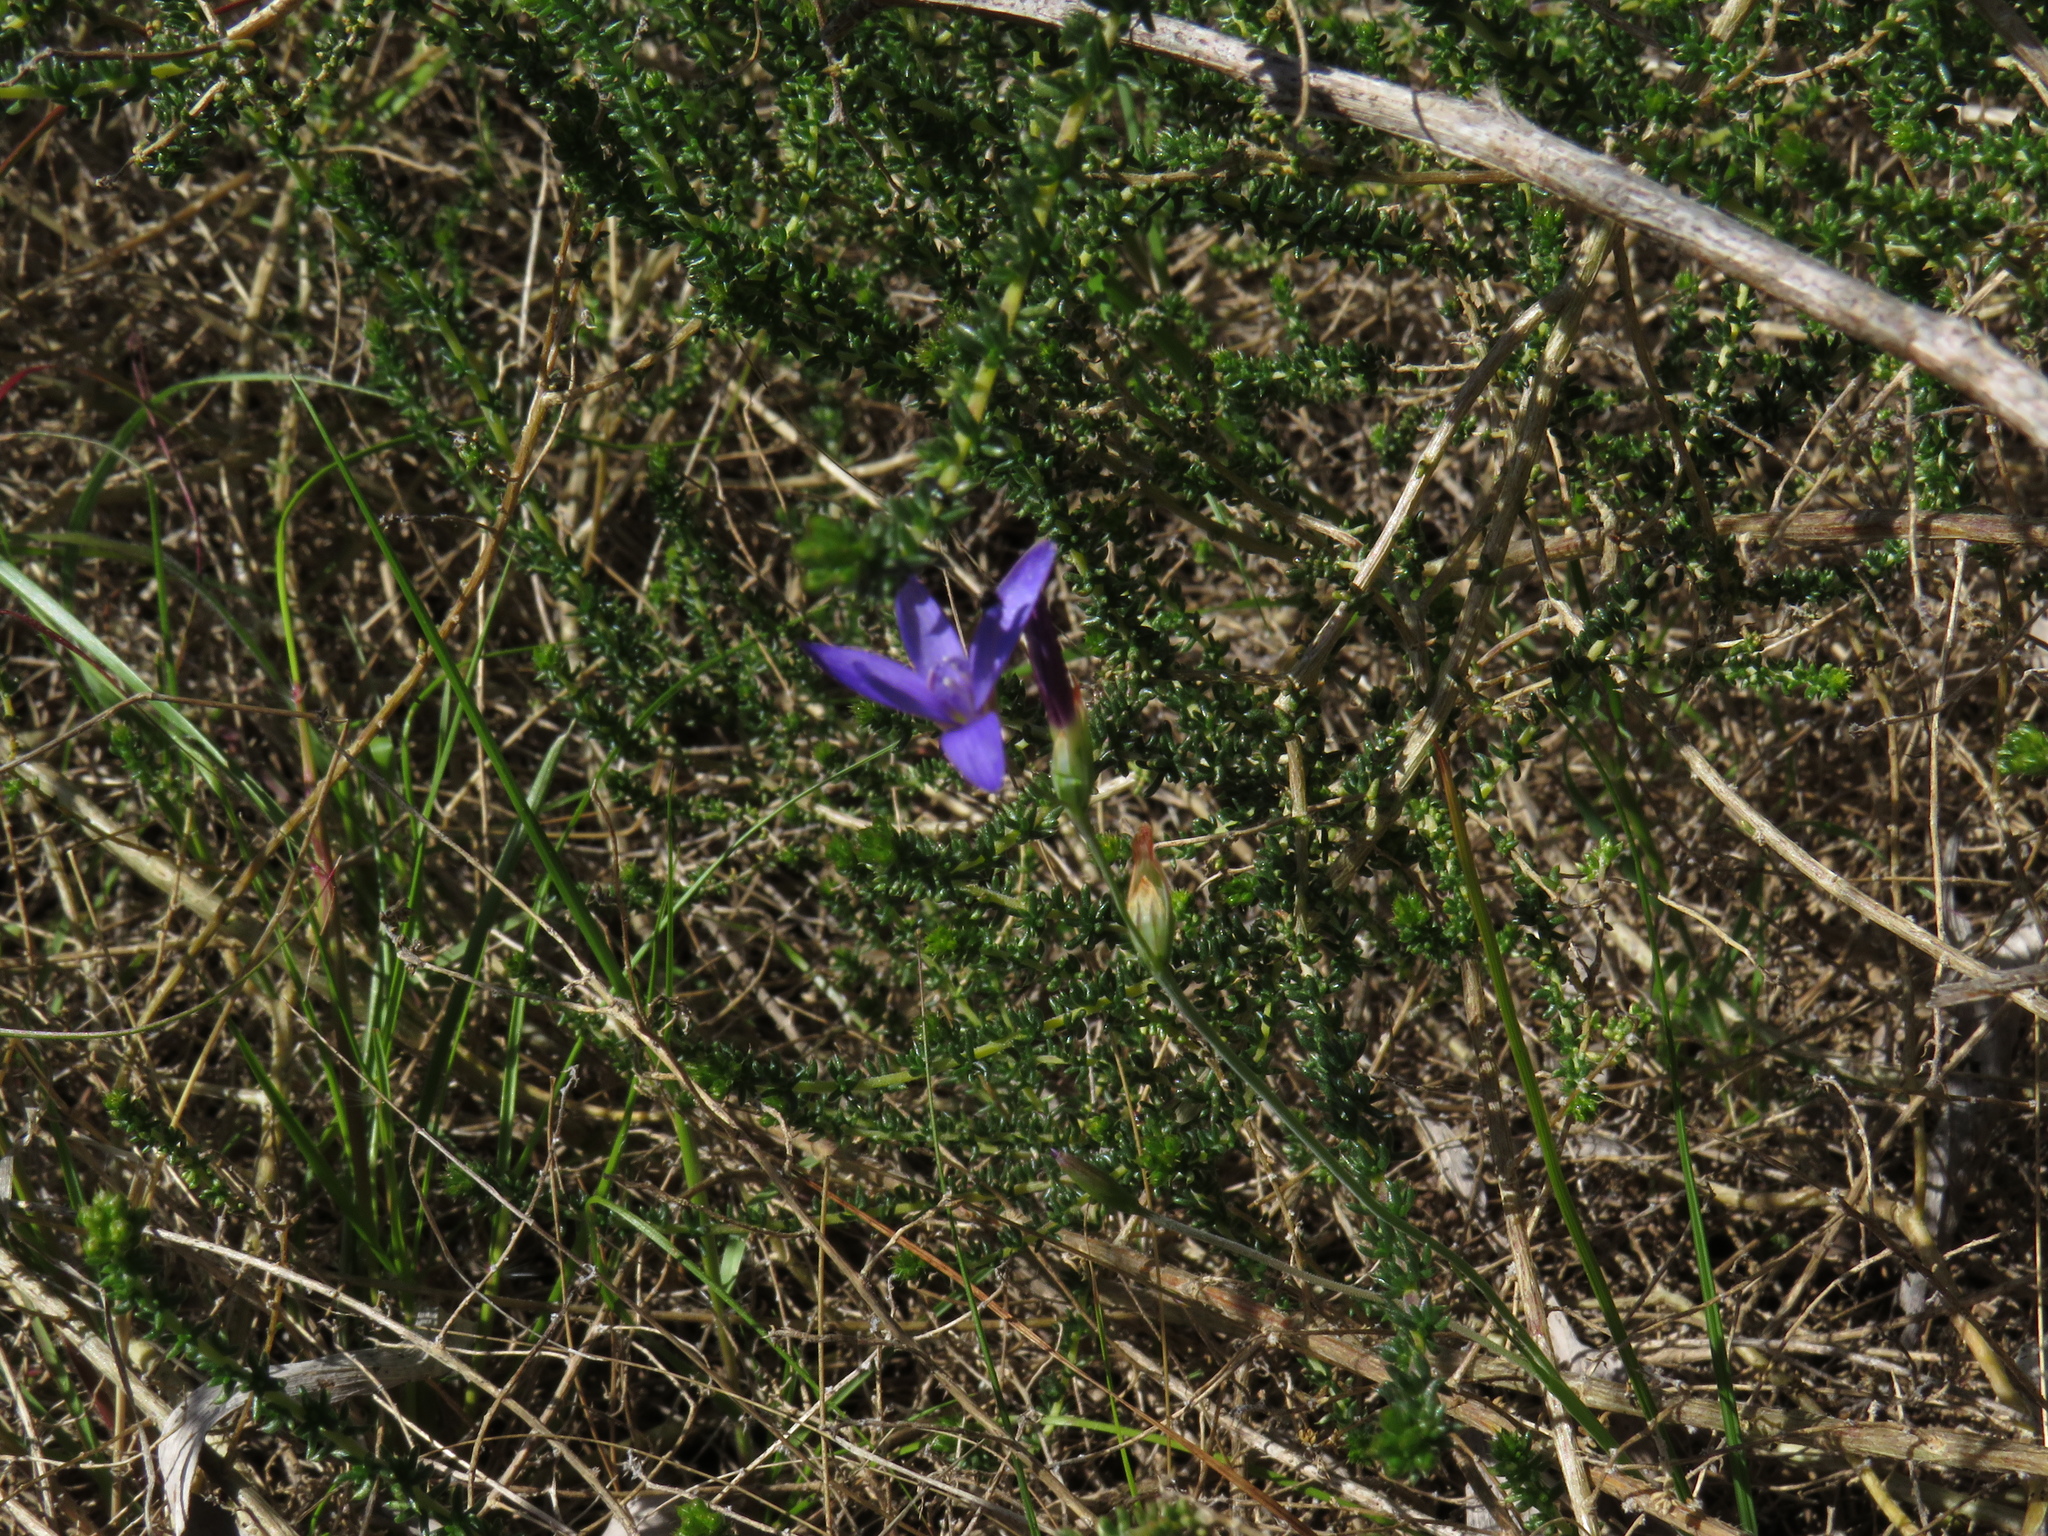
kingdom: Plantae
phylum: Tracheophyta
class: Liliopsida
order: Asparagales
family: Iridaceae
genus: Geissorhiza
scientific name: Geissorhiza aspera
